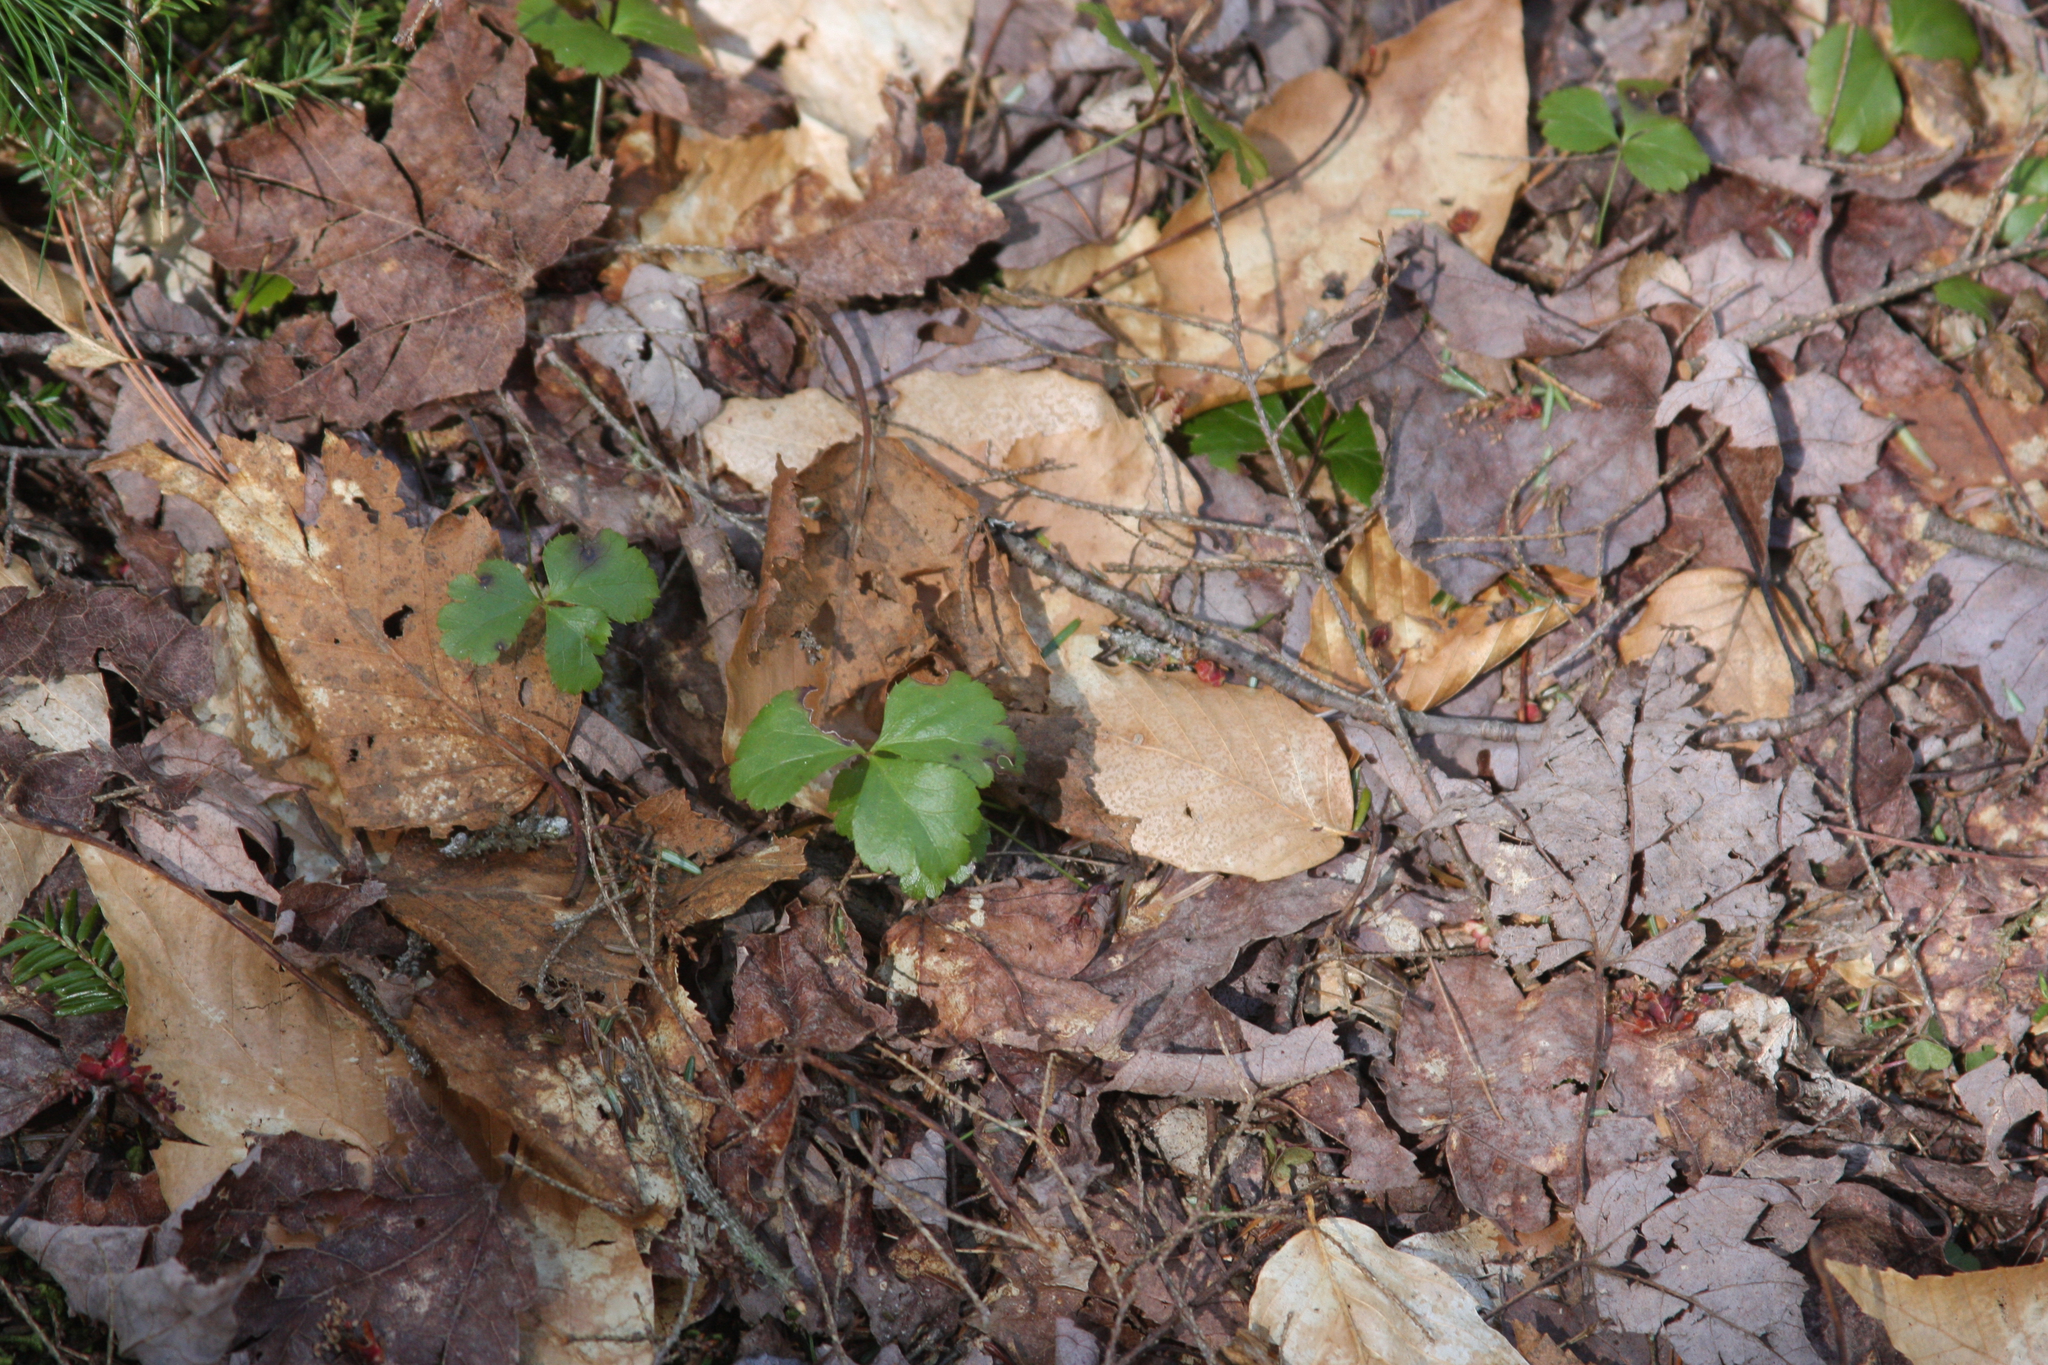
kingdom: Plantae
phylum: Tracheophyta
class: Magnoliopsida
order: Ranunculales
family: Ranunculaceae
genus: Coptis
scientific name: Coptis trifolia
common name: Canker-root
